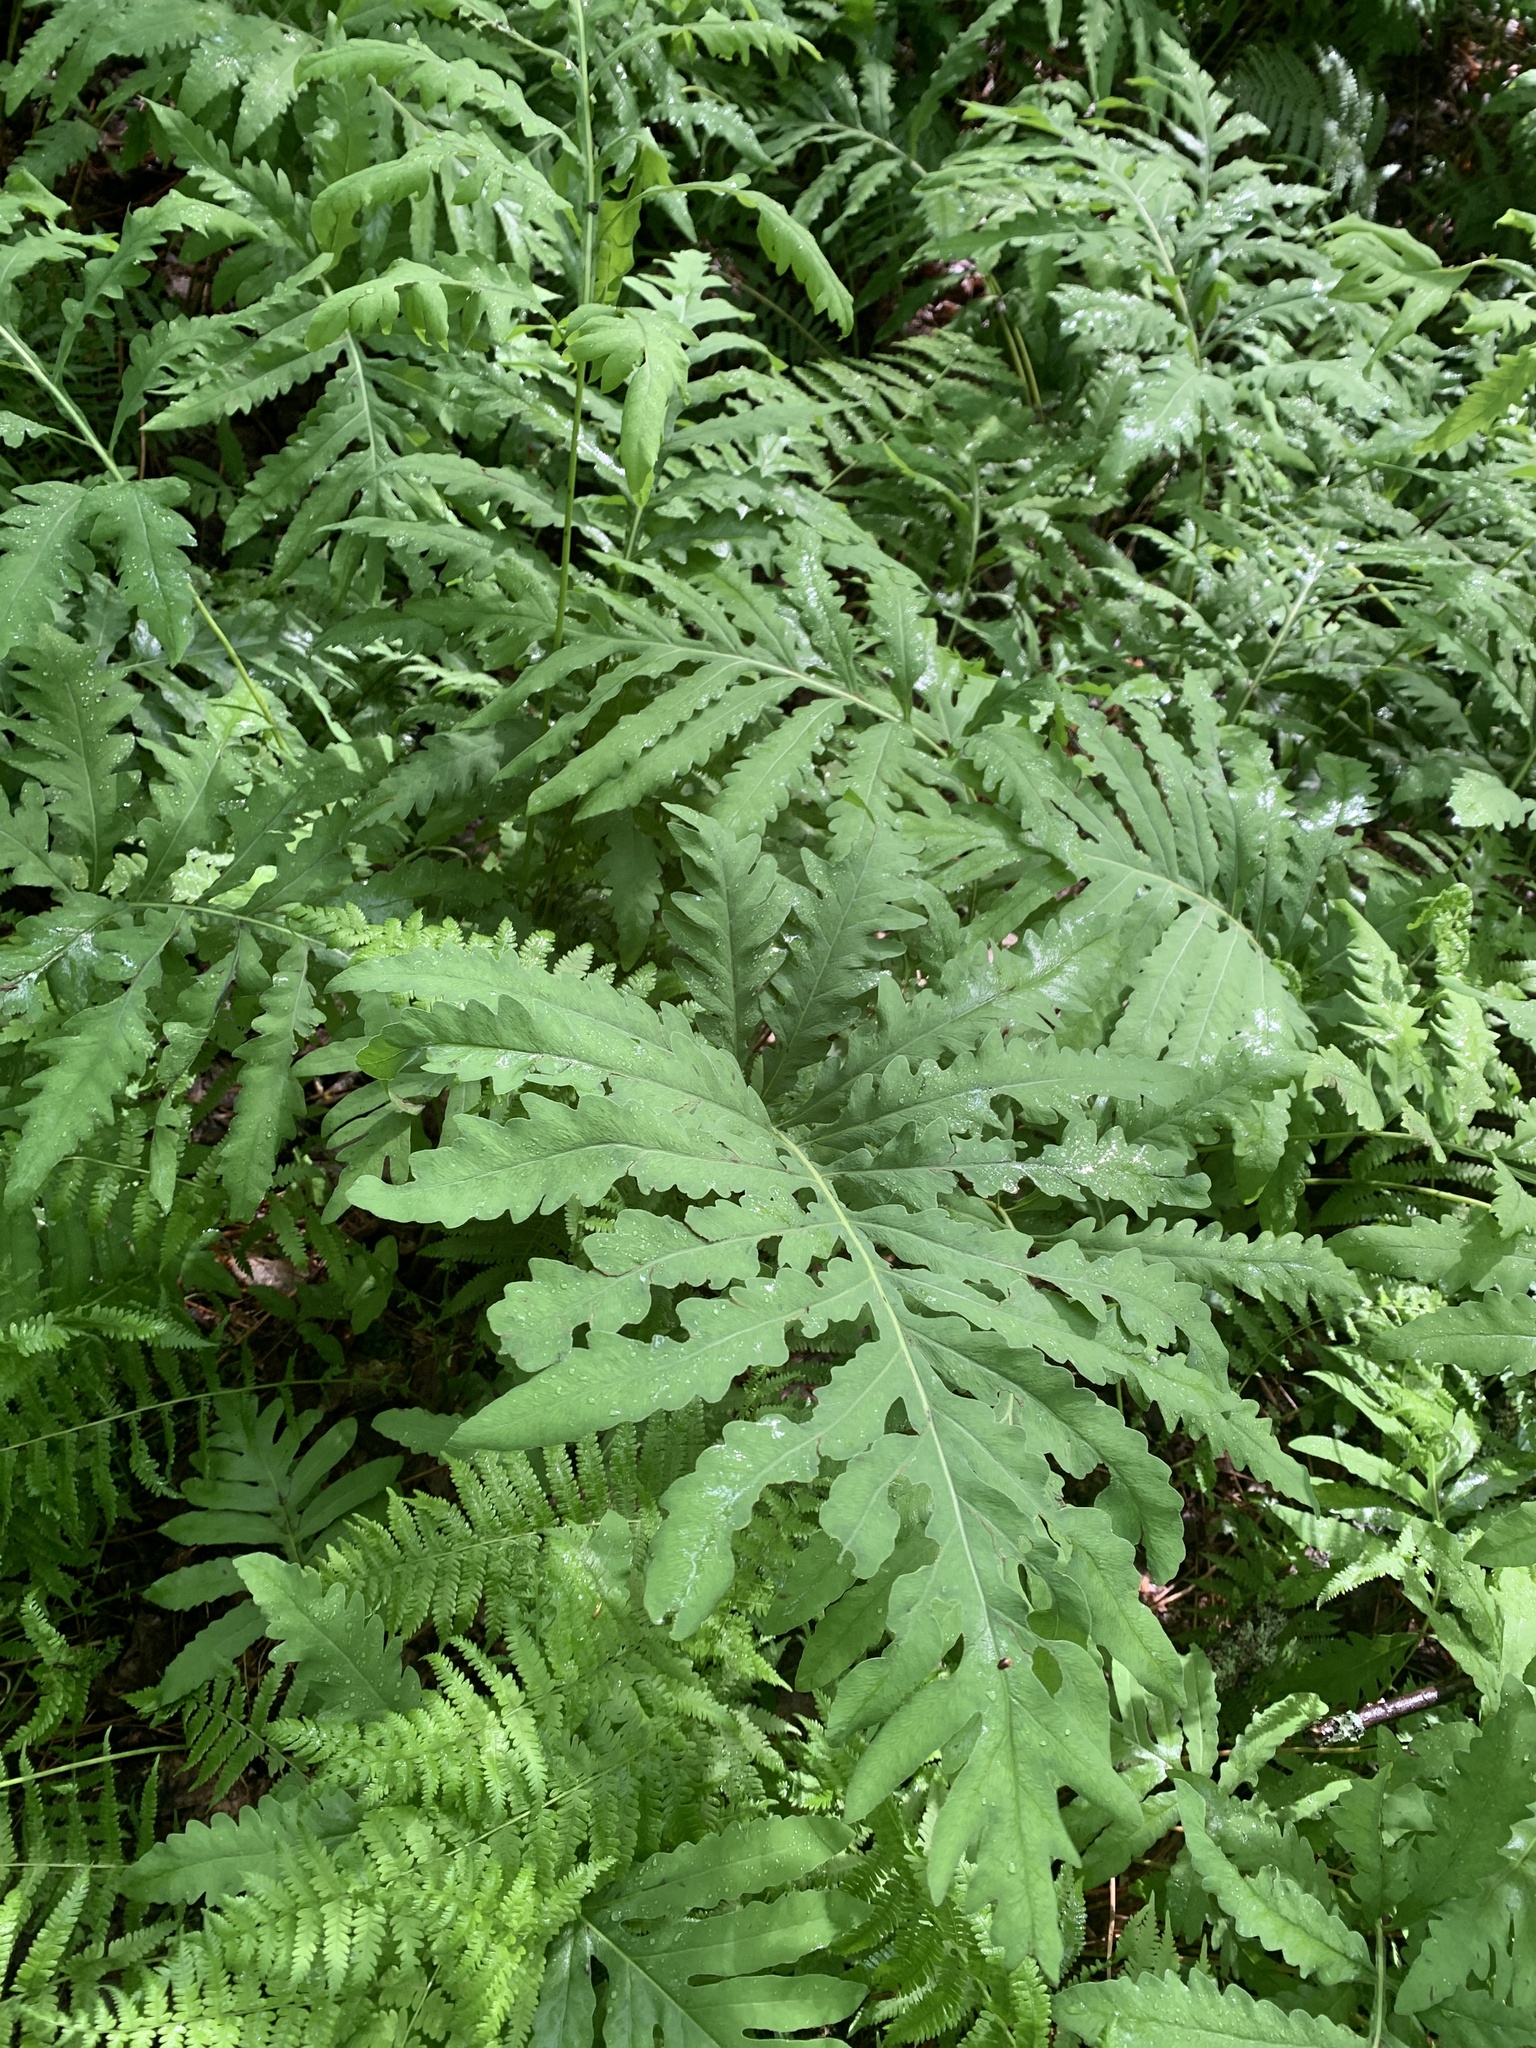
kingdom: Plantae
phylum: Tracheophyta
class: Polypodiopsida
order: Polypodiales
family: Onocleaceae
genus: Onoclea
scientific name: Onoclea sensibilis
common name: Sensitive fern
